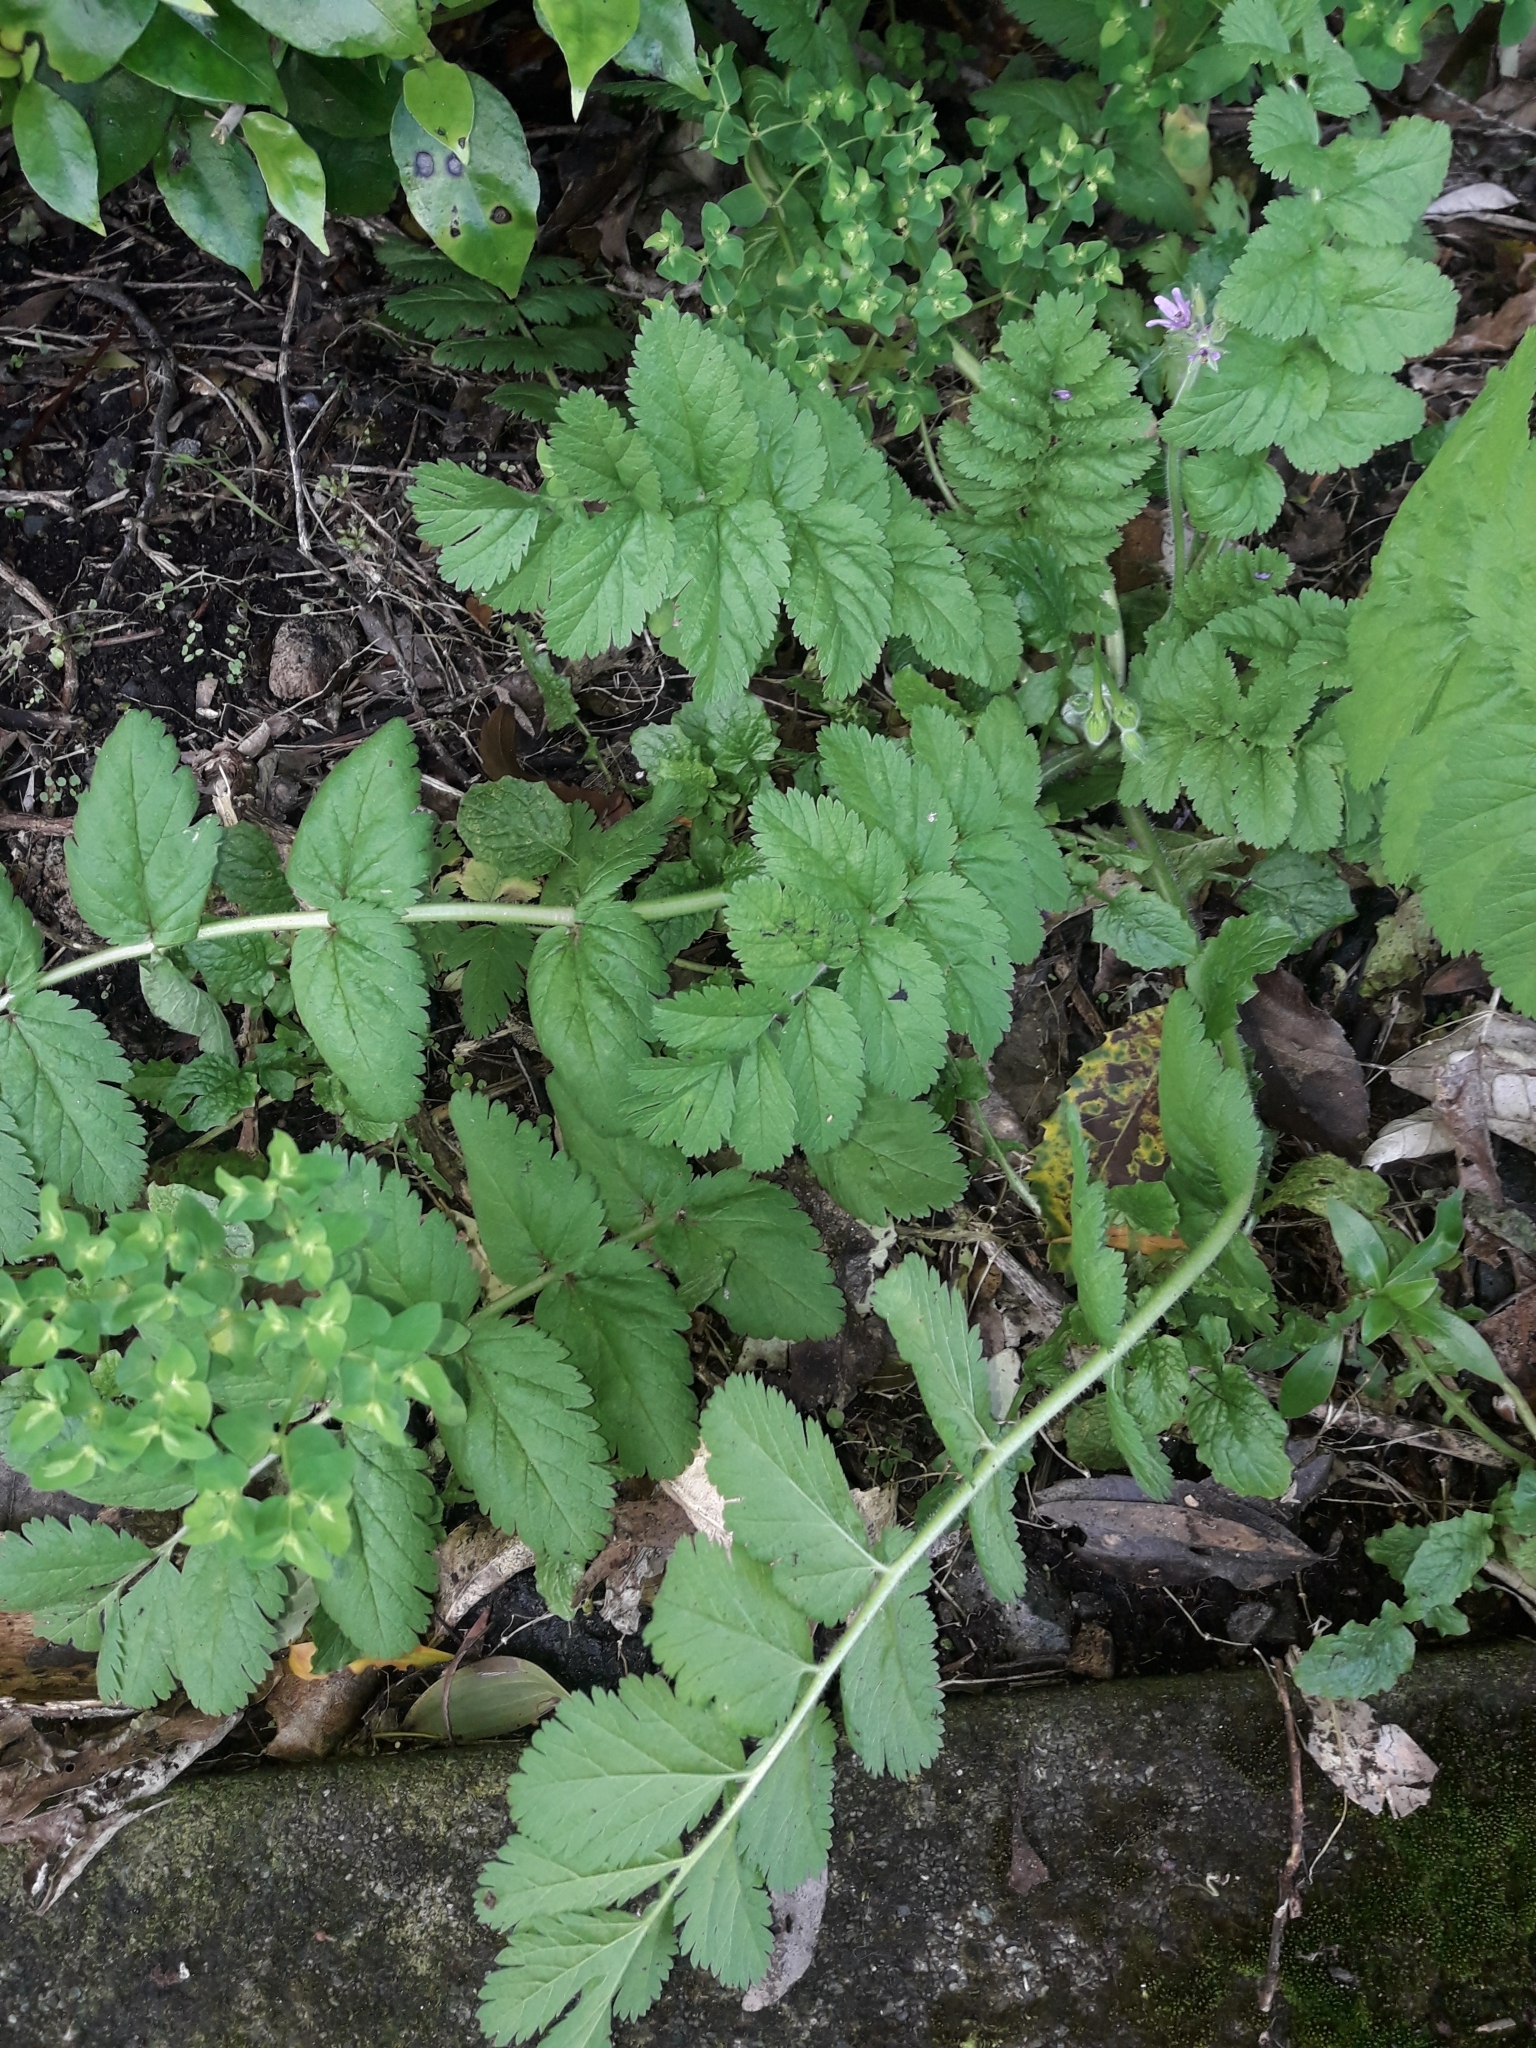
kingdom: Plantae
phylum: Tracheophyta
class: Magnoliopsida
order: Geraniales
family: Geraniaceae
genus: Erodium
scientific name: Erodium moschatum
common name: Musk stork's-bill
